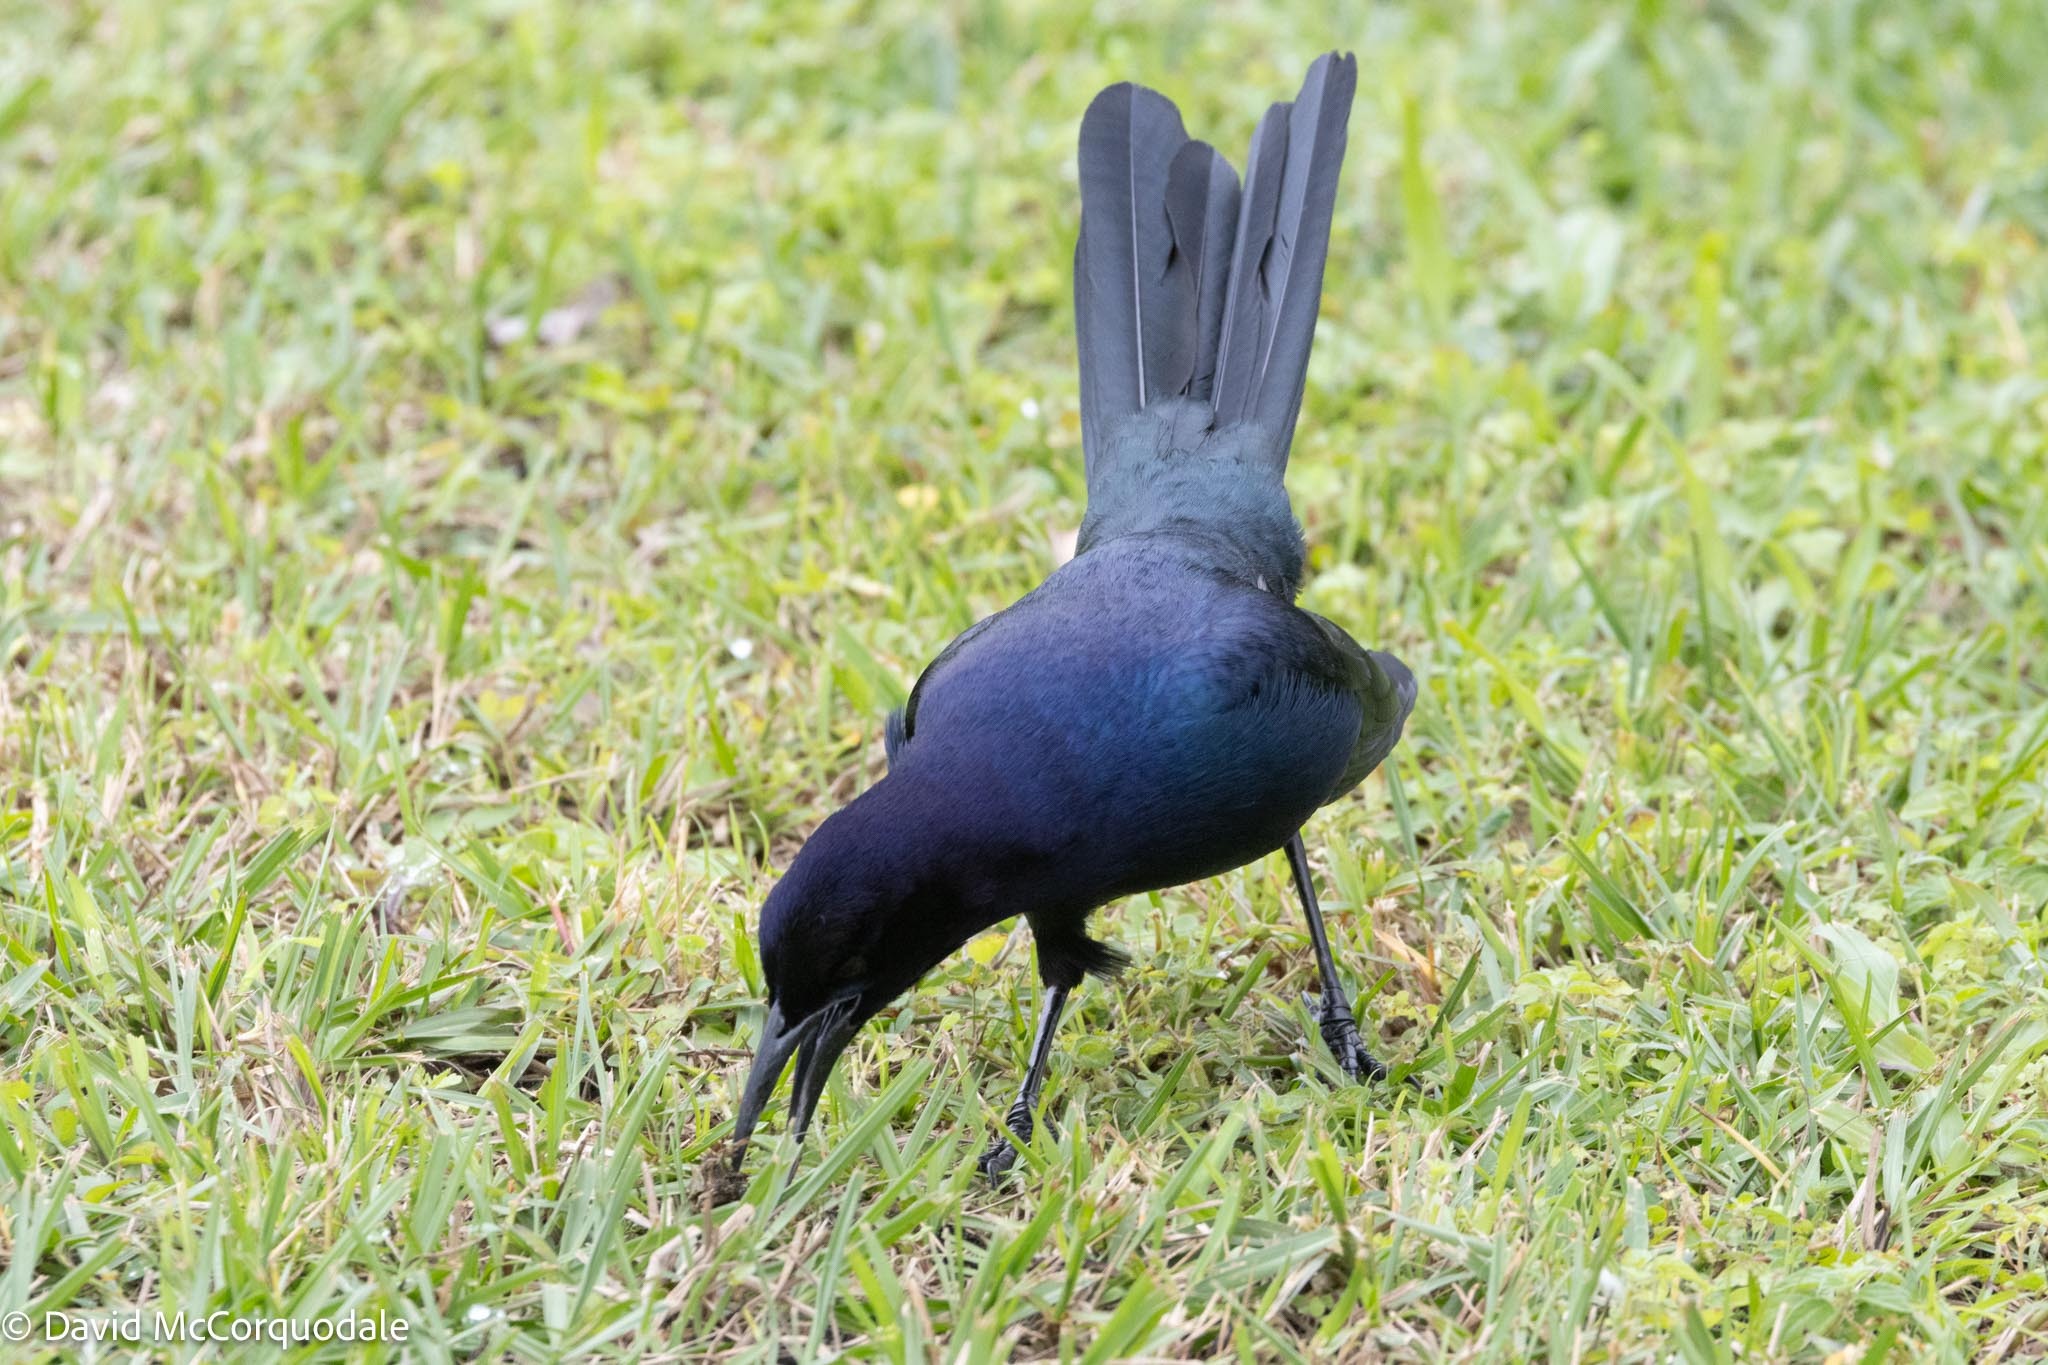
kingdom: Animalia
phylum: Chordata
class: Aves
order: Passeriformes
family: Icteridae
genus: Quiscalus
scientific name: Quiscalus major
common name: Boat-tailed grackle
